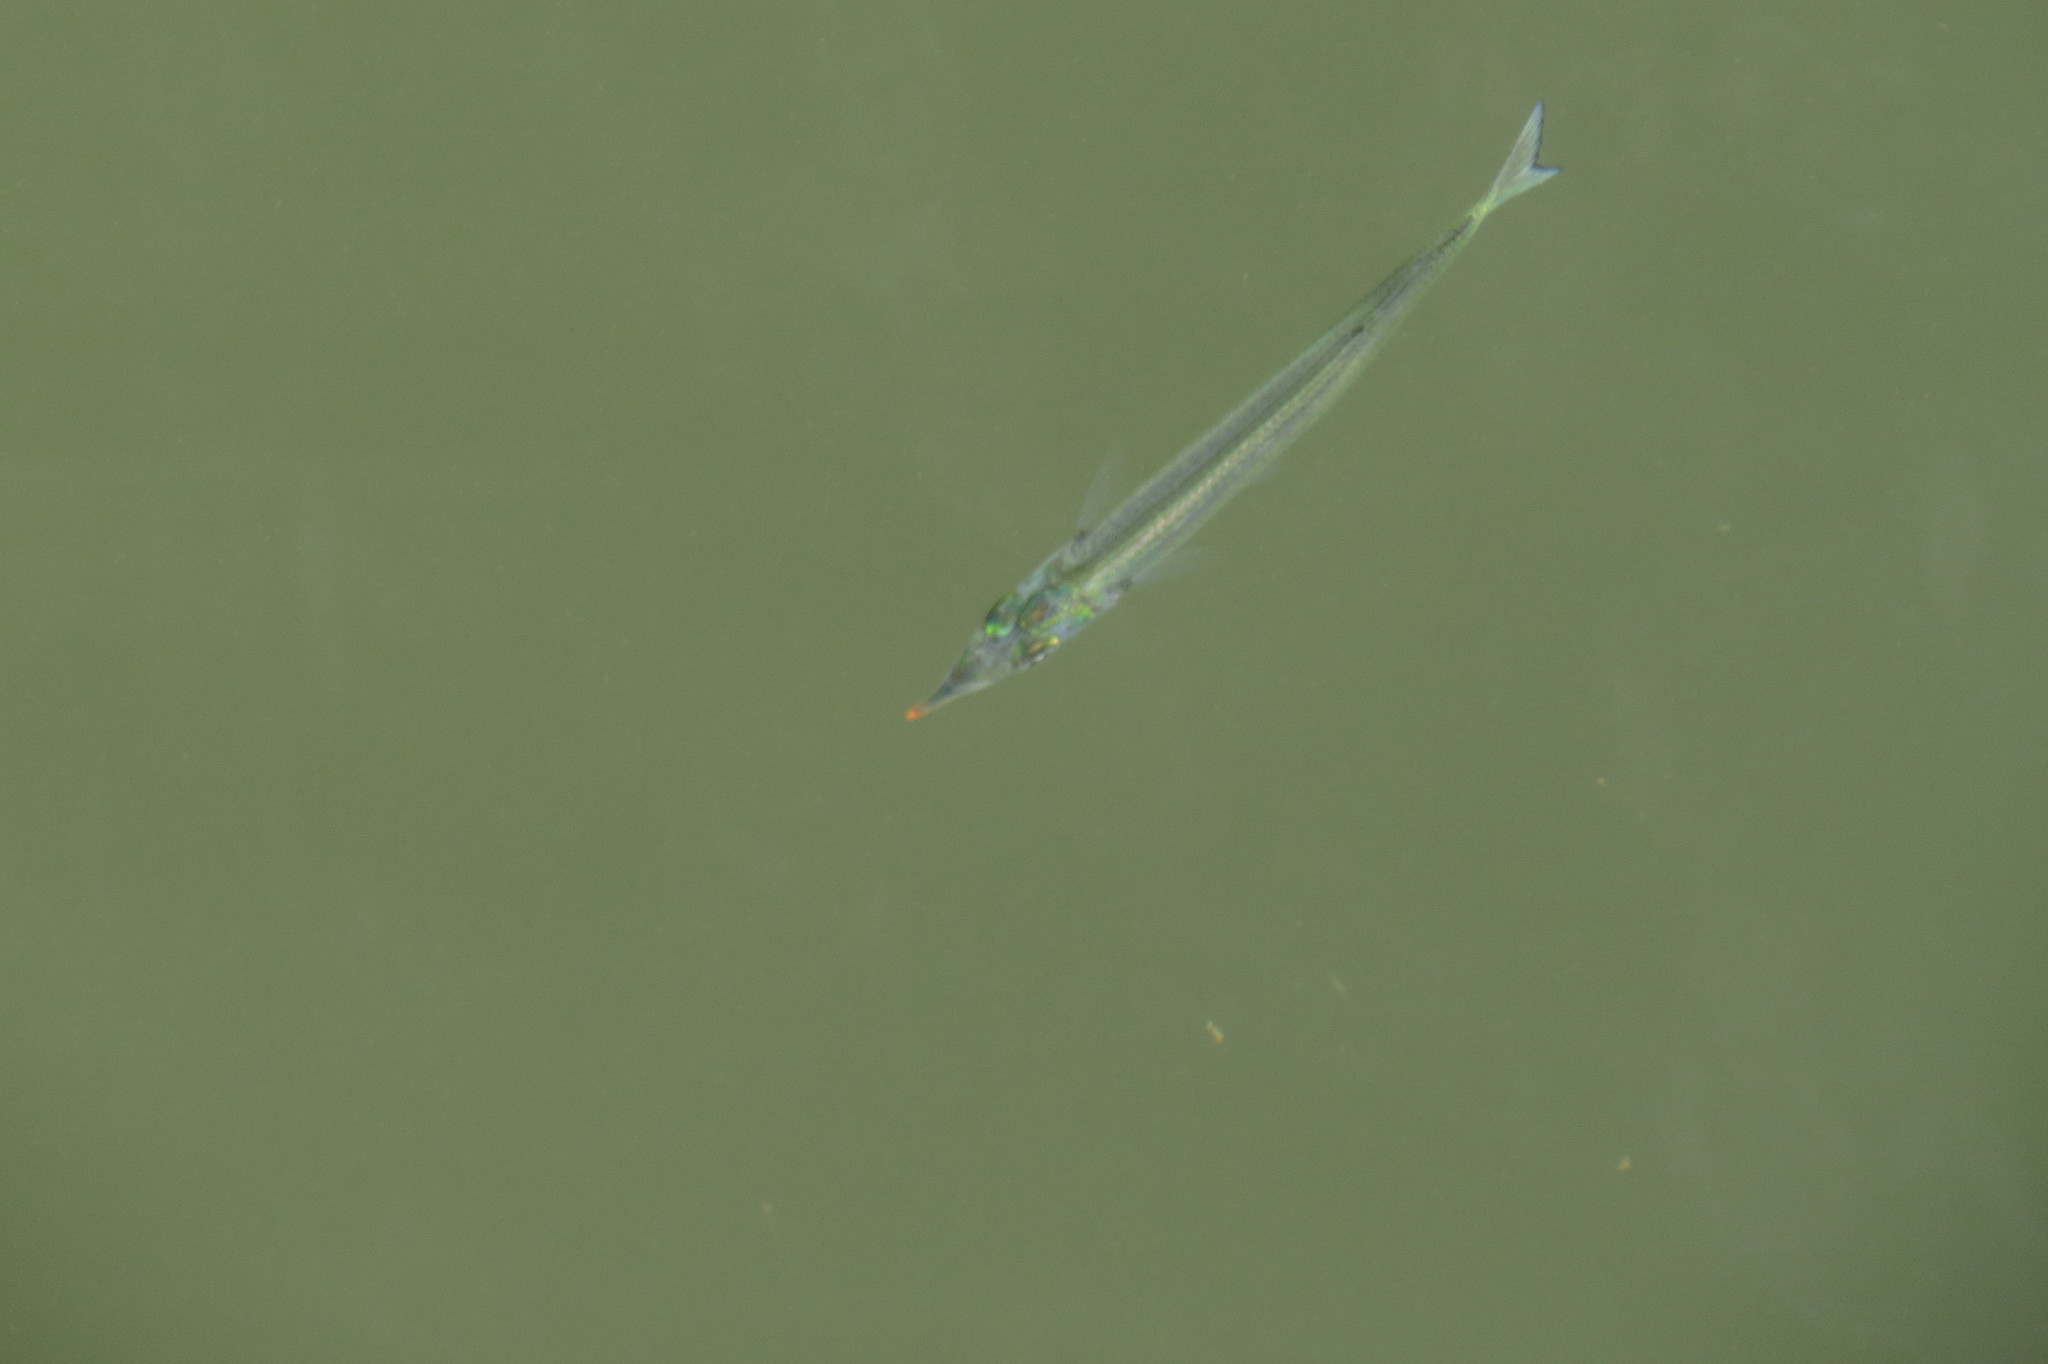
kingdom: Animalia
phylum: Chordata
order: Beloniformes
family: Hemiramphidae
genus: Arrhamphus
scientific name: Arrhamphus sclerolepis
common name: Snub-nosed garfish
